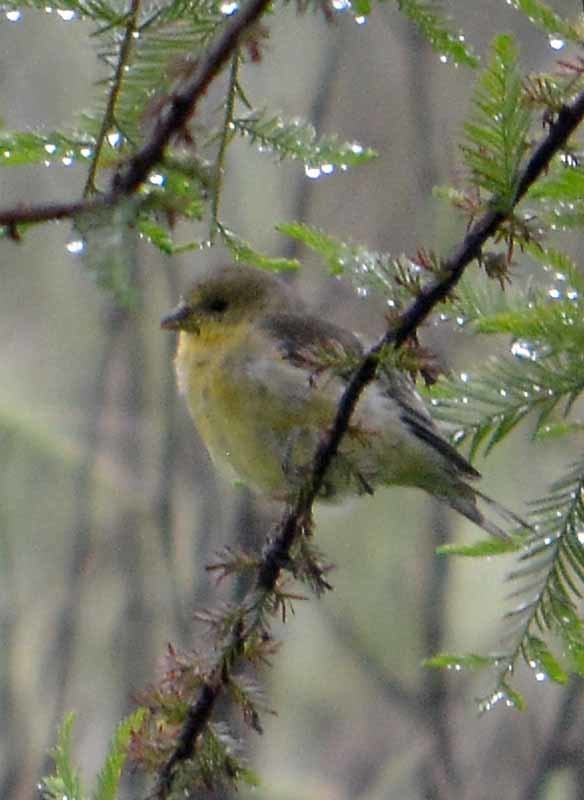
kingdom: Animalia
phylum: Chordata
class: Aves
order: Passeriformes
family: Fringillidae
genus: Spinus
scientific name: Spinus psaltria
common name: Lesser goldfinch
